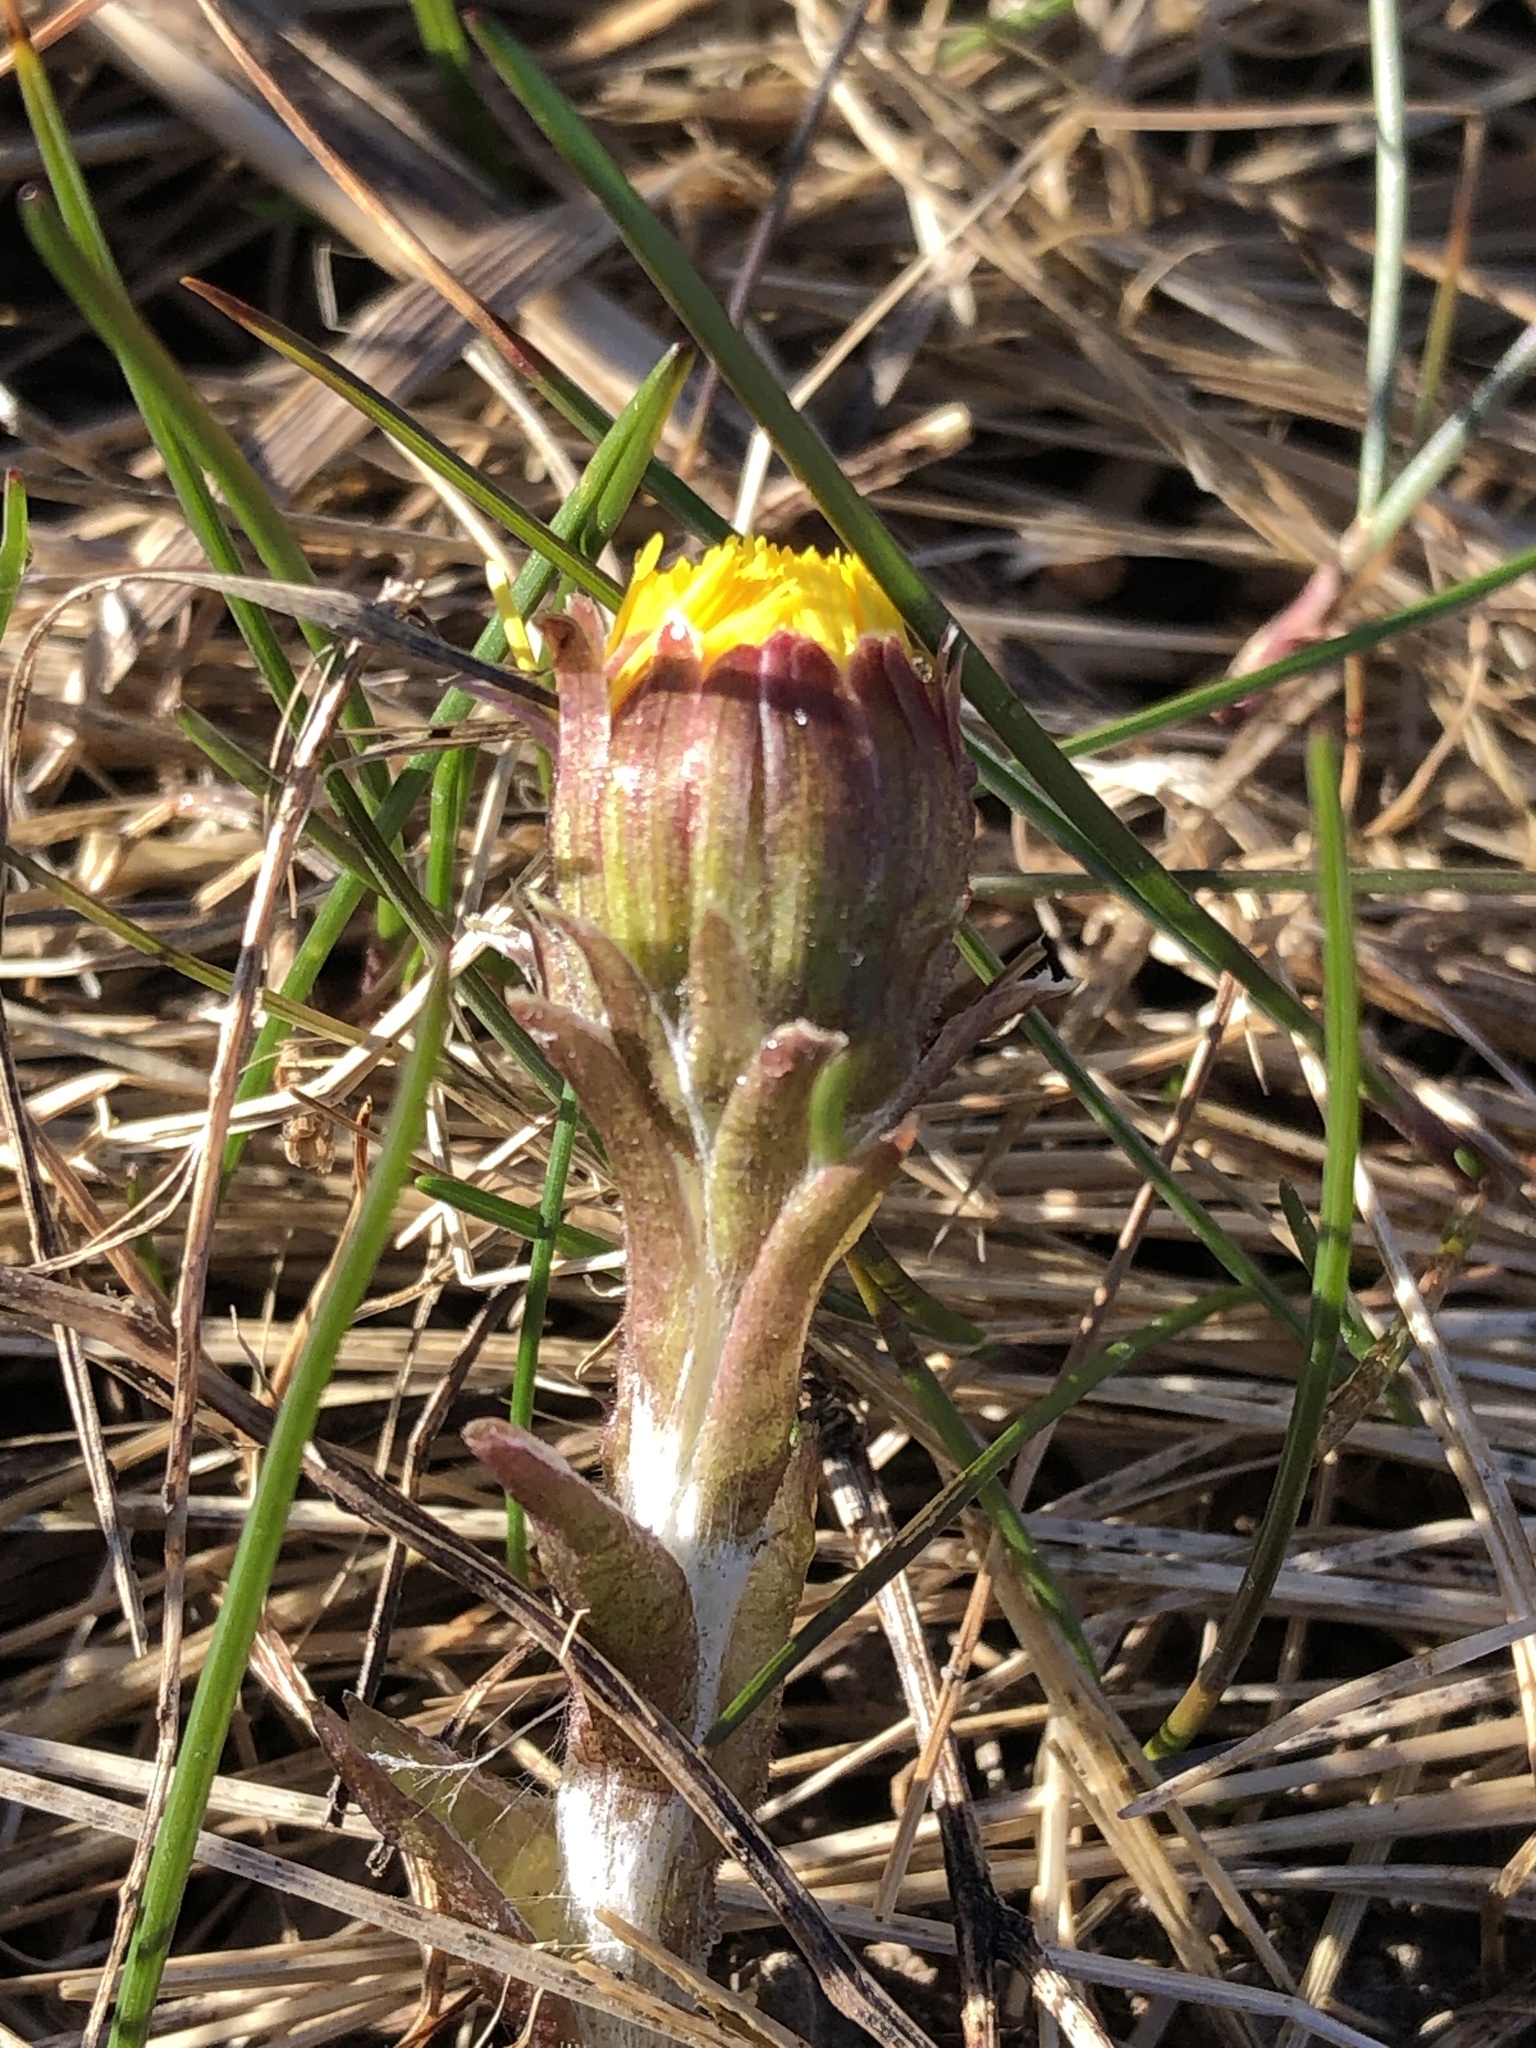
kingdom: Plantae
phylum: Tracheophyta
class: Magnoliopsida
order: Asterales
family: Asteraceae
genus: Tussilago
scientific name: Tussilago farfara
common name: Coltsfoot
